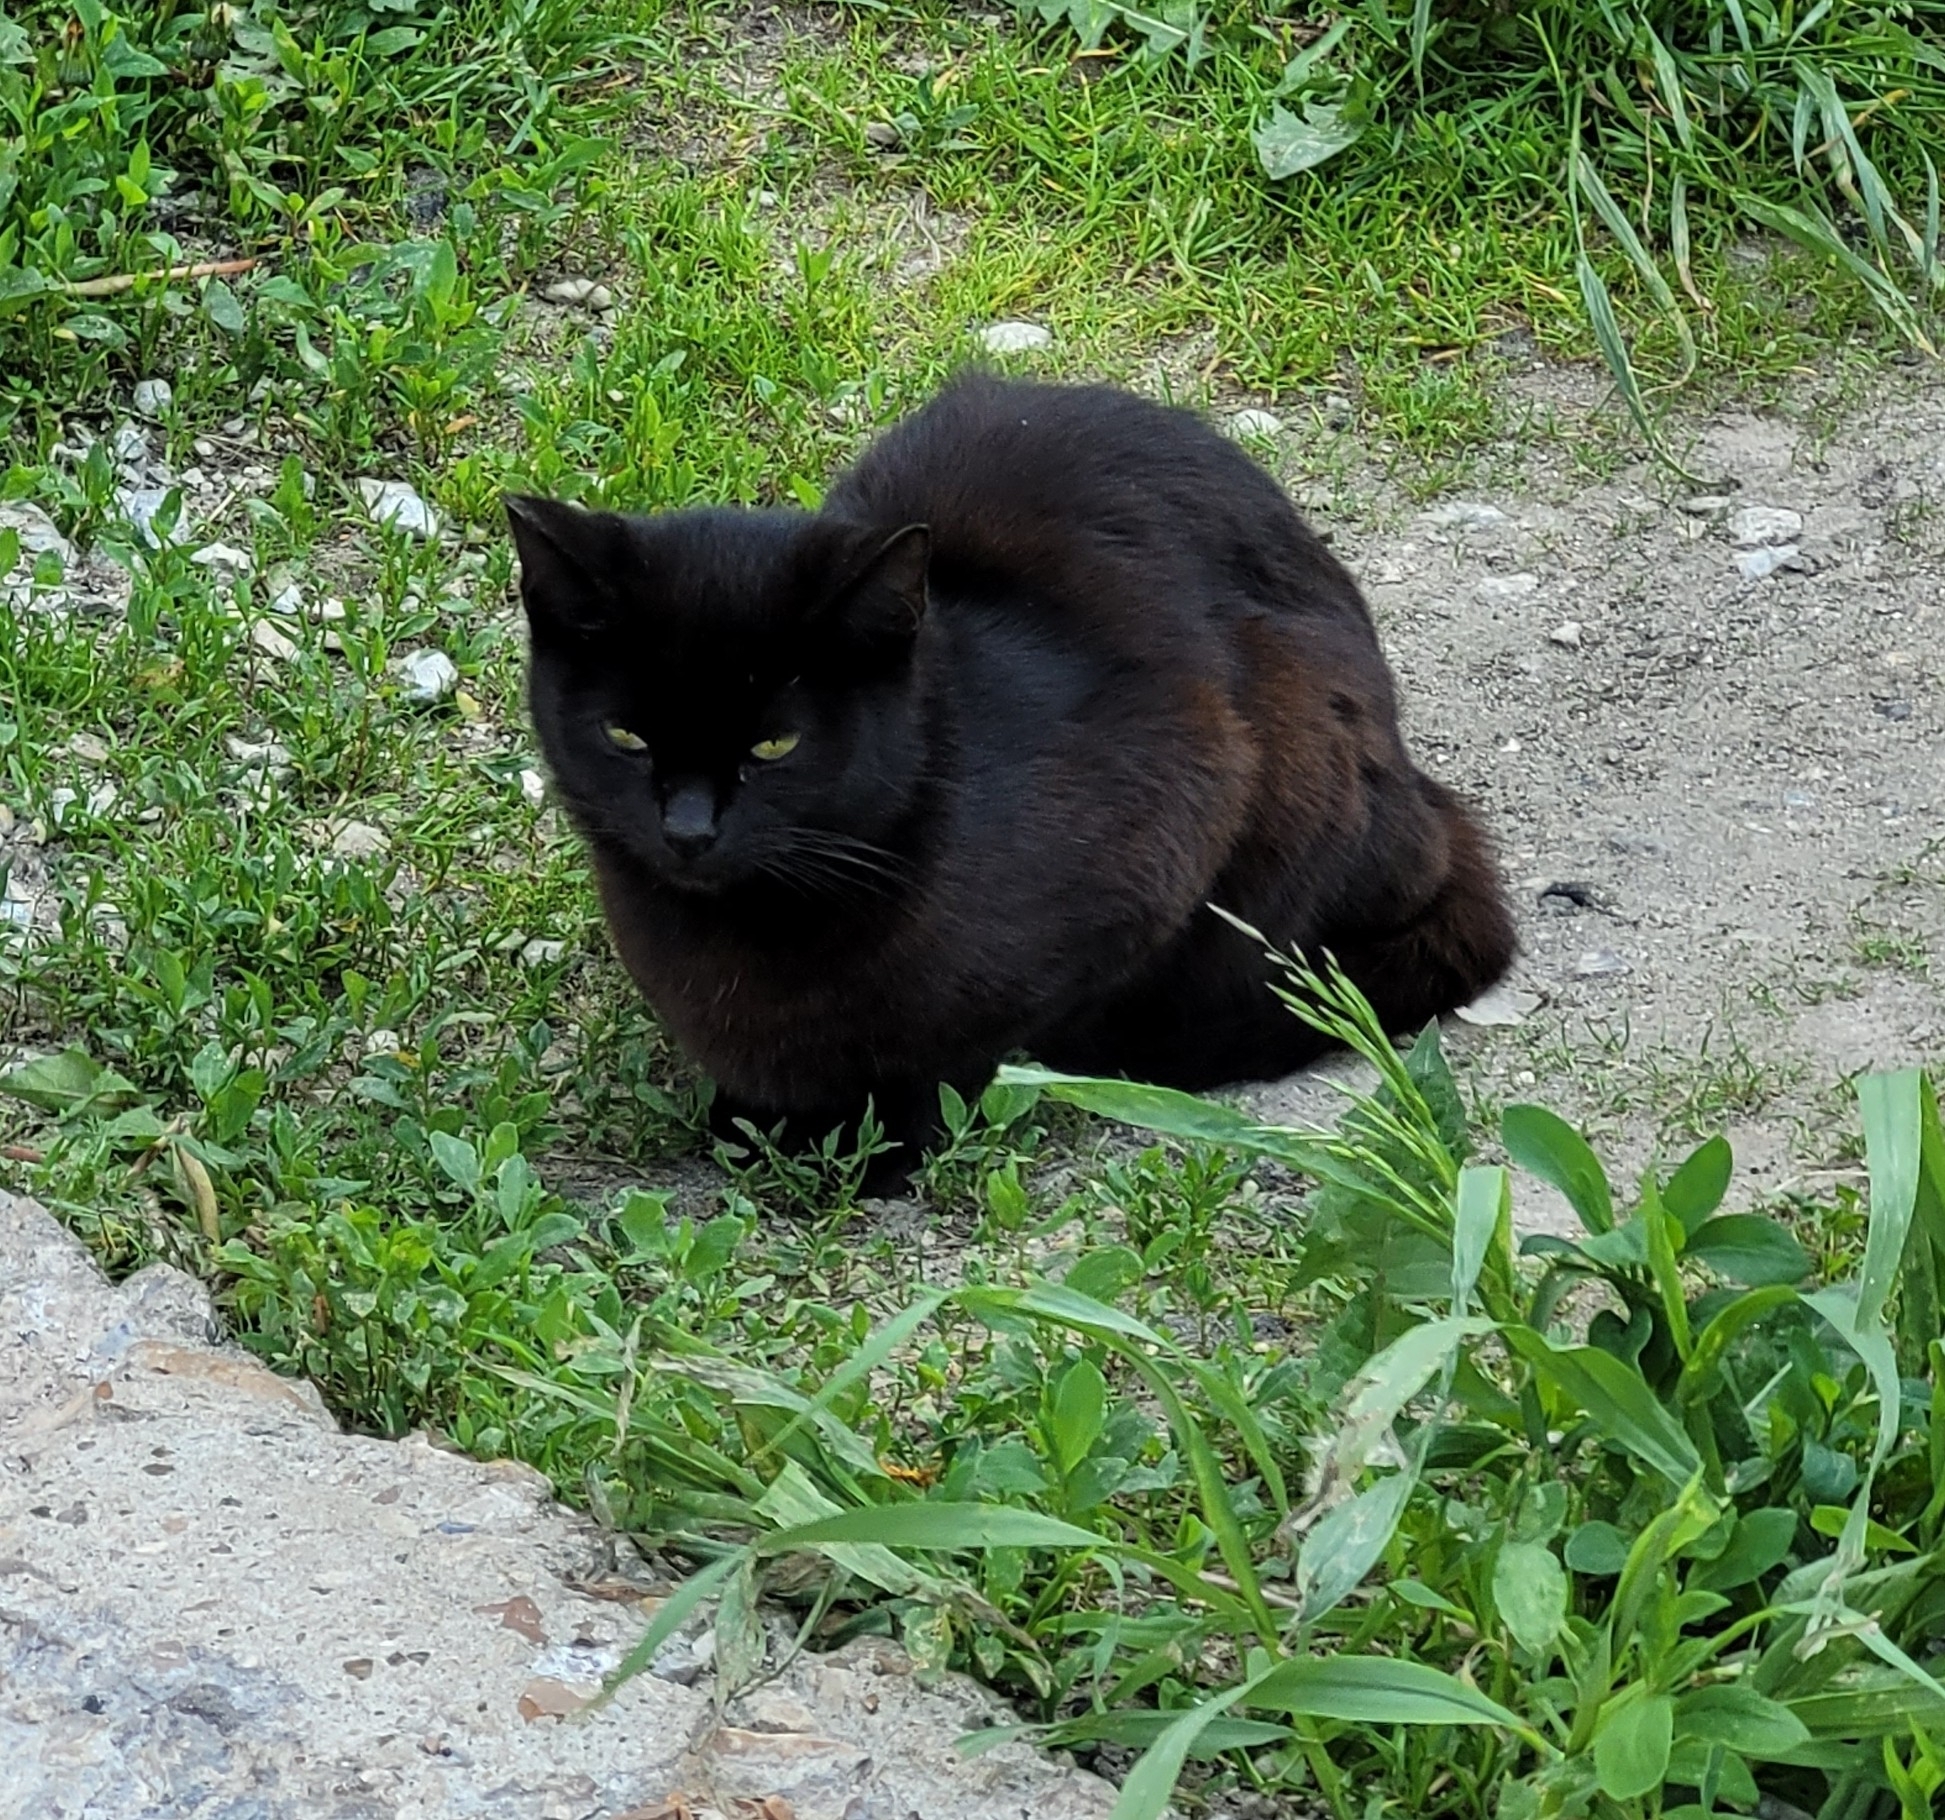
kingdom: Animalia
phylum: Chordata
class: Mammalia
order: Carnivora
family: Felidae
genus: Felis
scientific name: Felis catus
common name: Domestic cat
